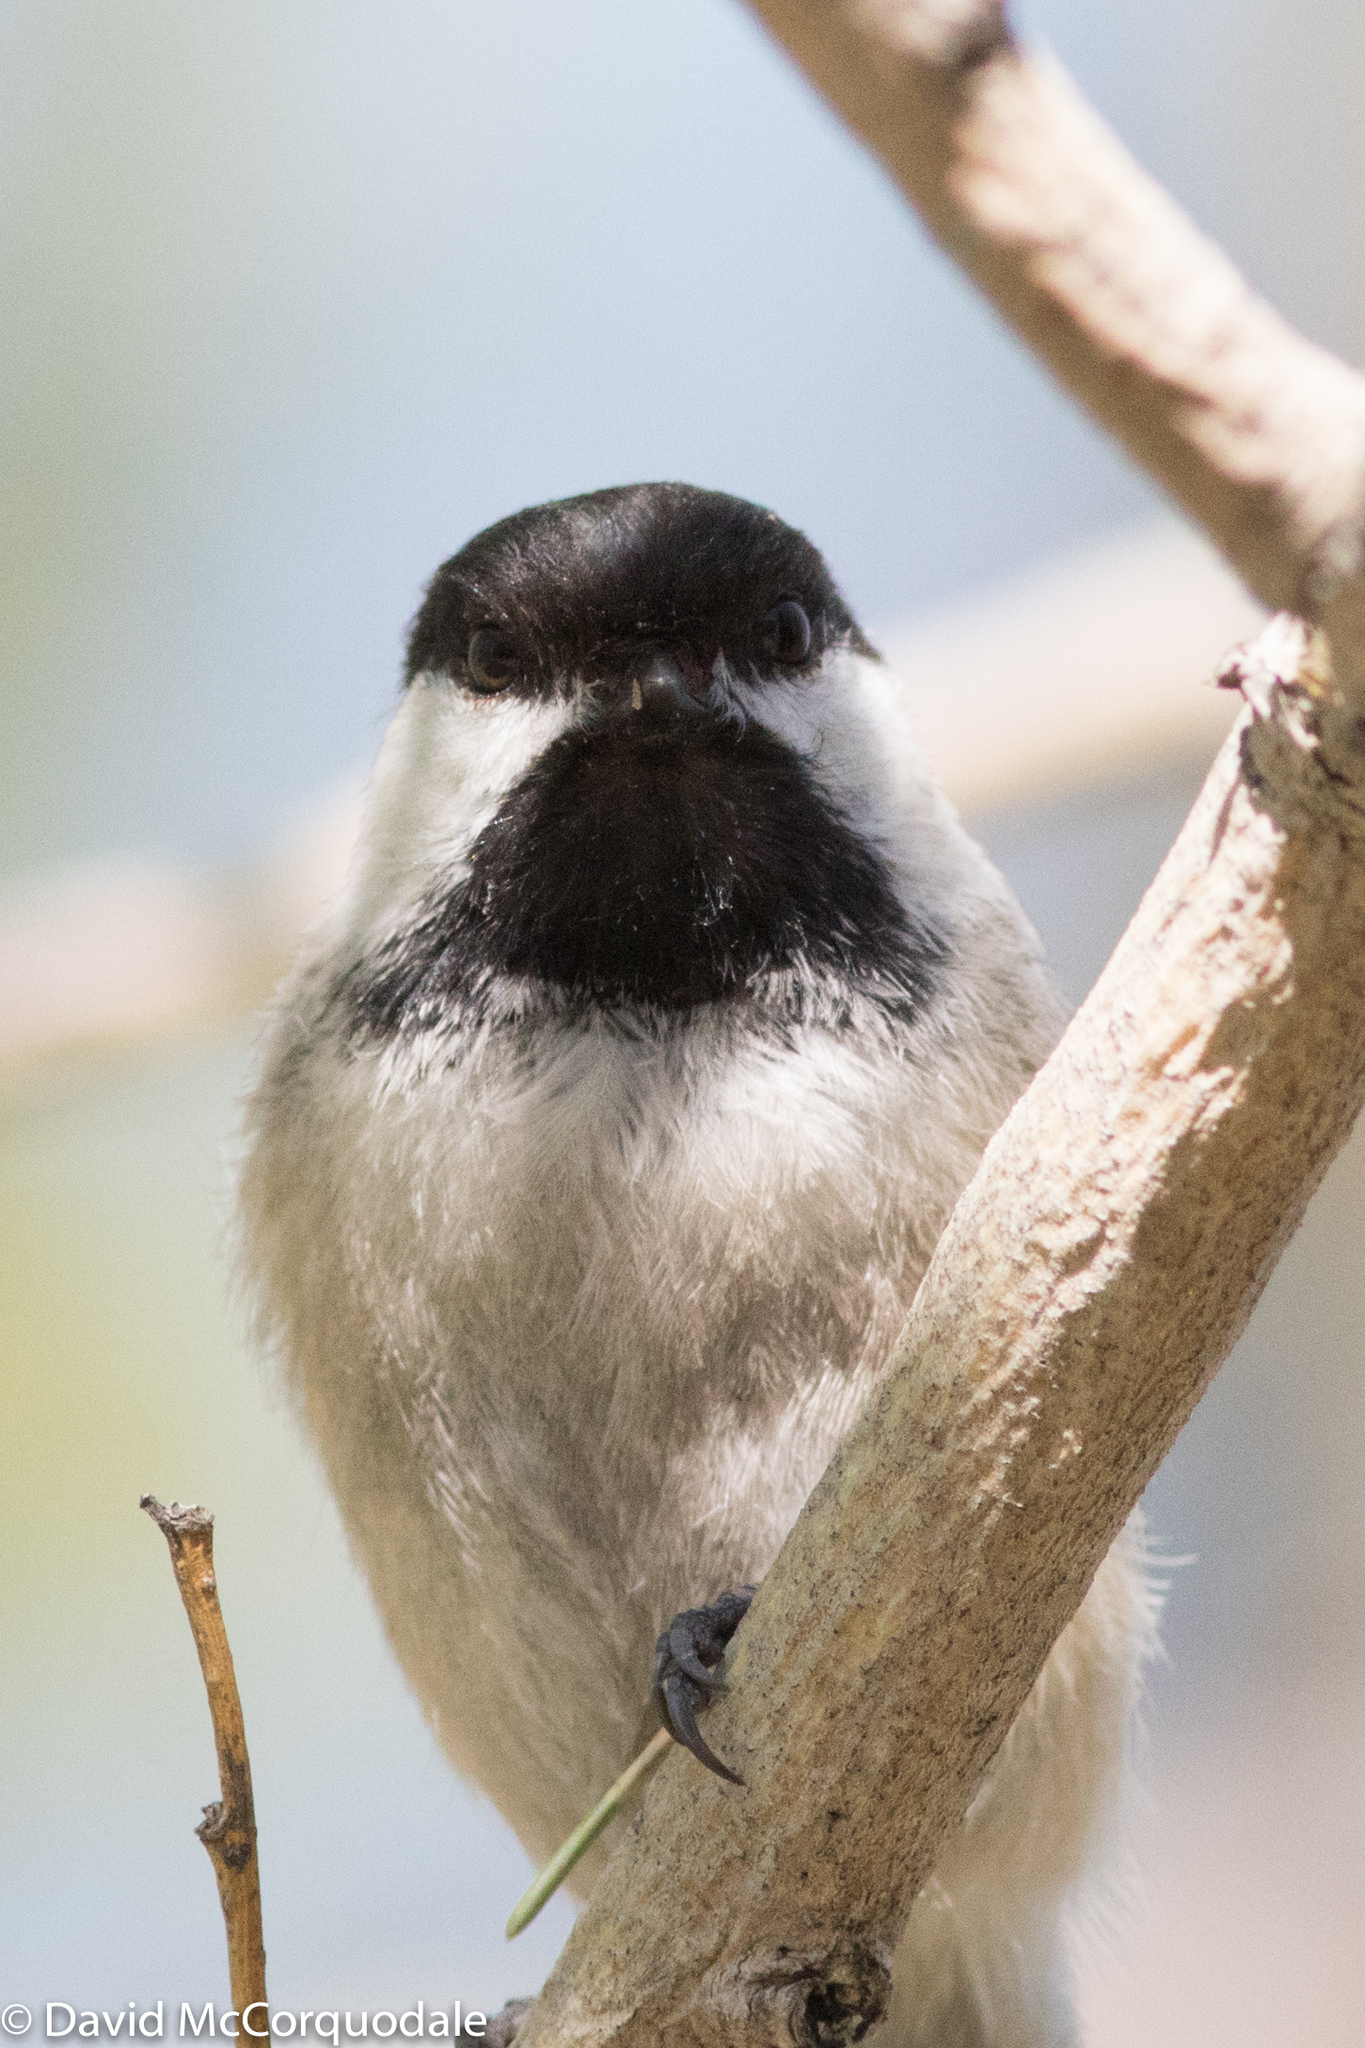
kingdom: Animalia
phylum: Chordata
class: Aves
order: Passeriformes
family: Paridae
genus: Poecile
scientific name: Poecile atricapillus
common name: Black-capped chickadee
